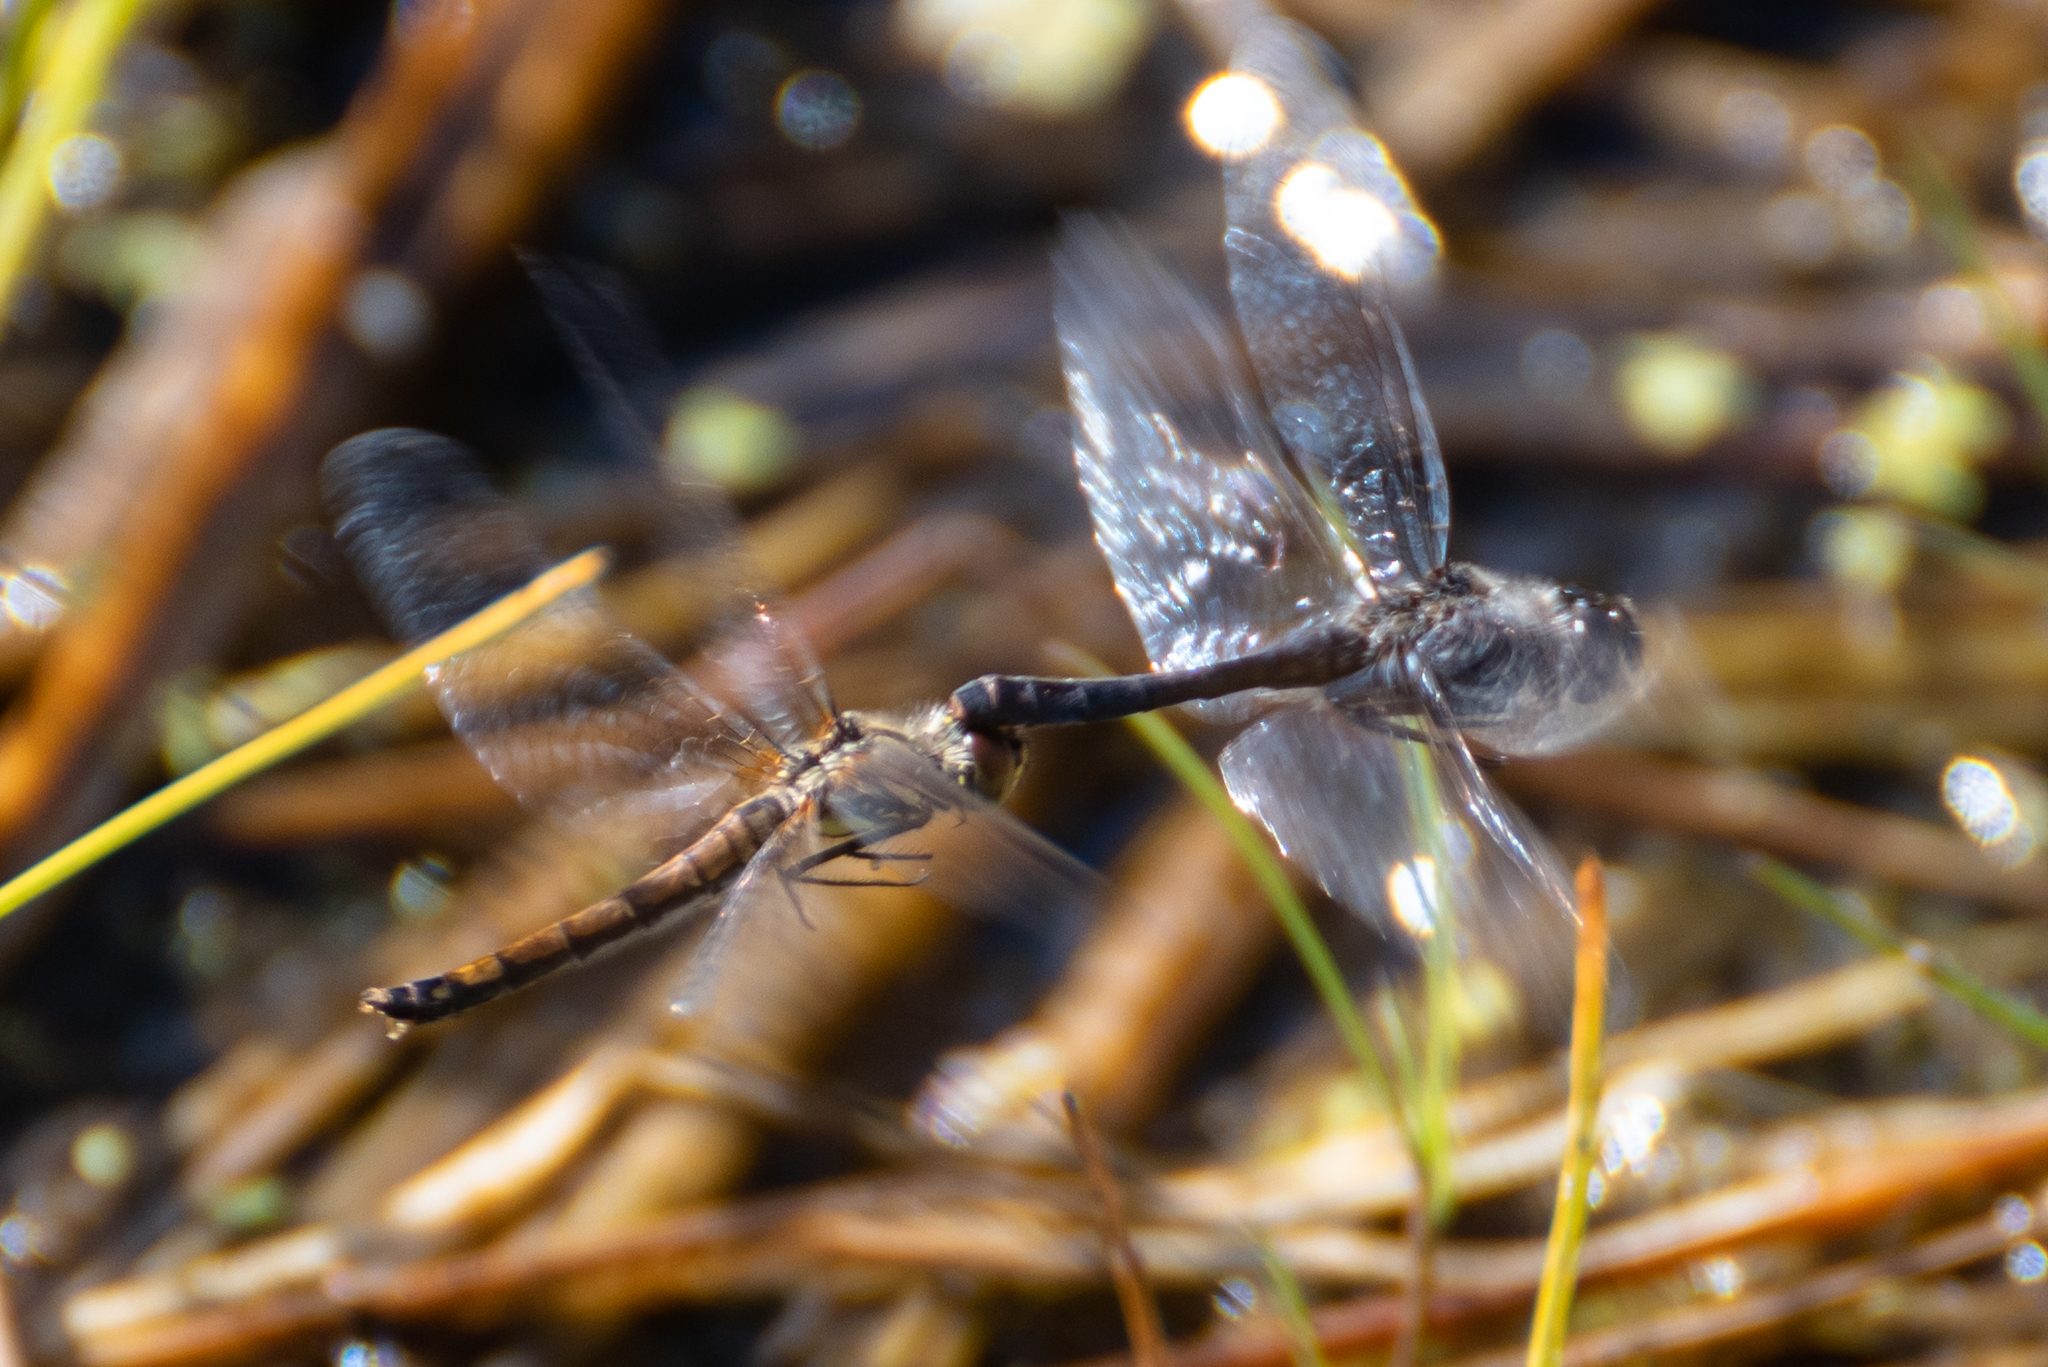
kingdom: Animalia
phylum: Arthropoda
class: Insecta
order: Odonata
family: Libellulidae
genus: Sympetrum
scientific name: Sympetrum danae
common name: Black darter
